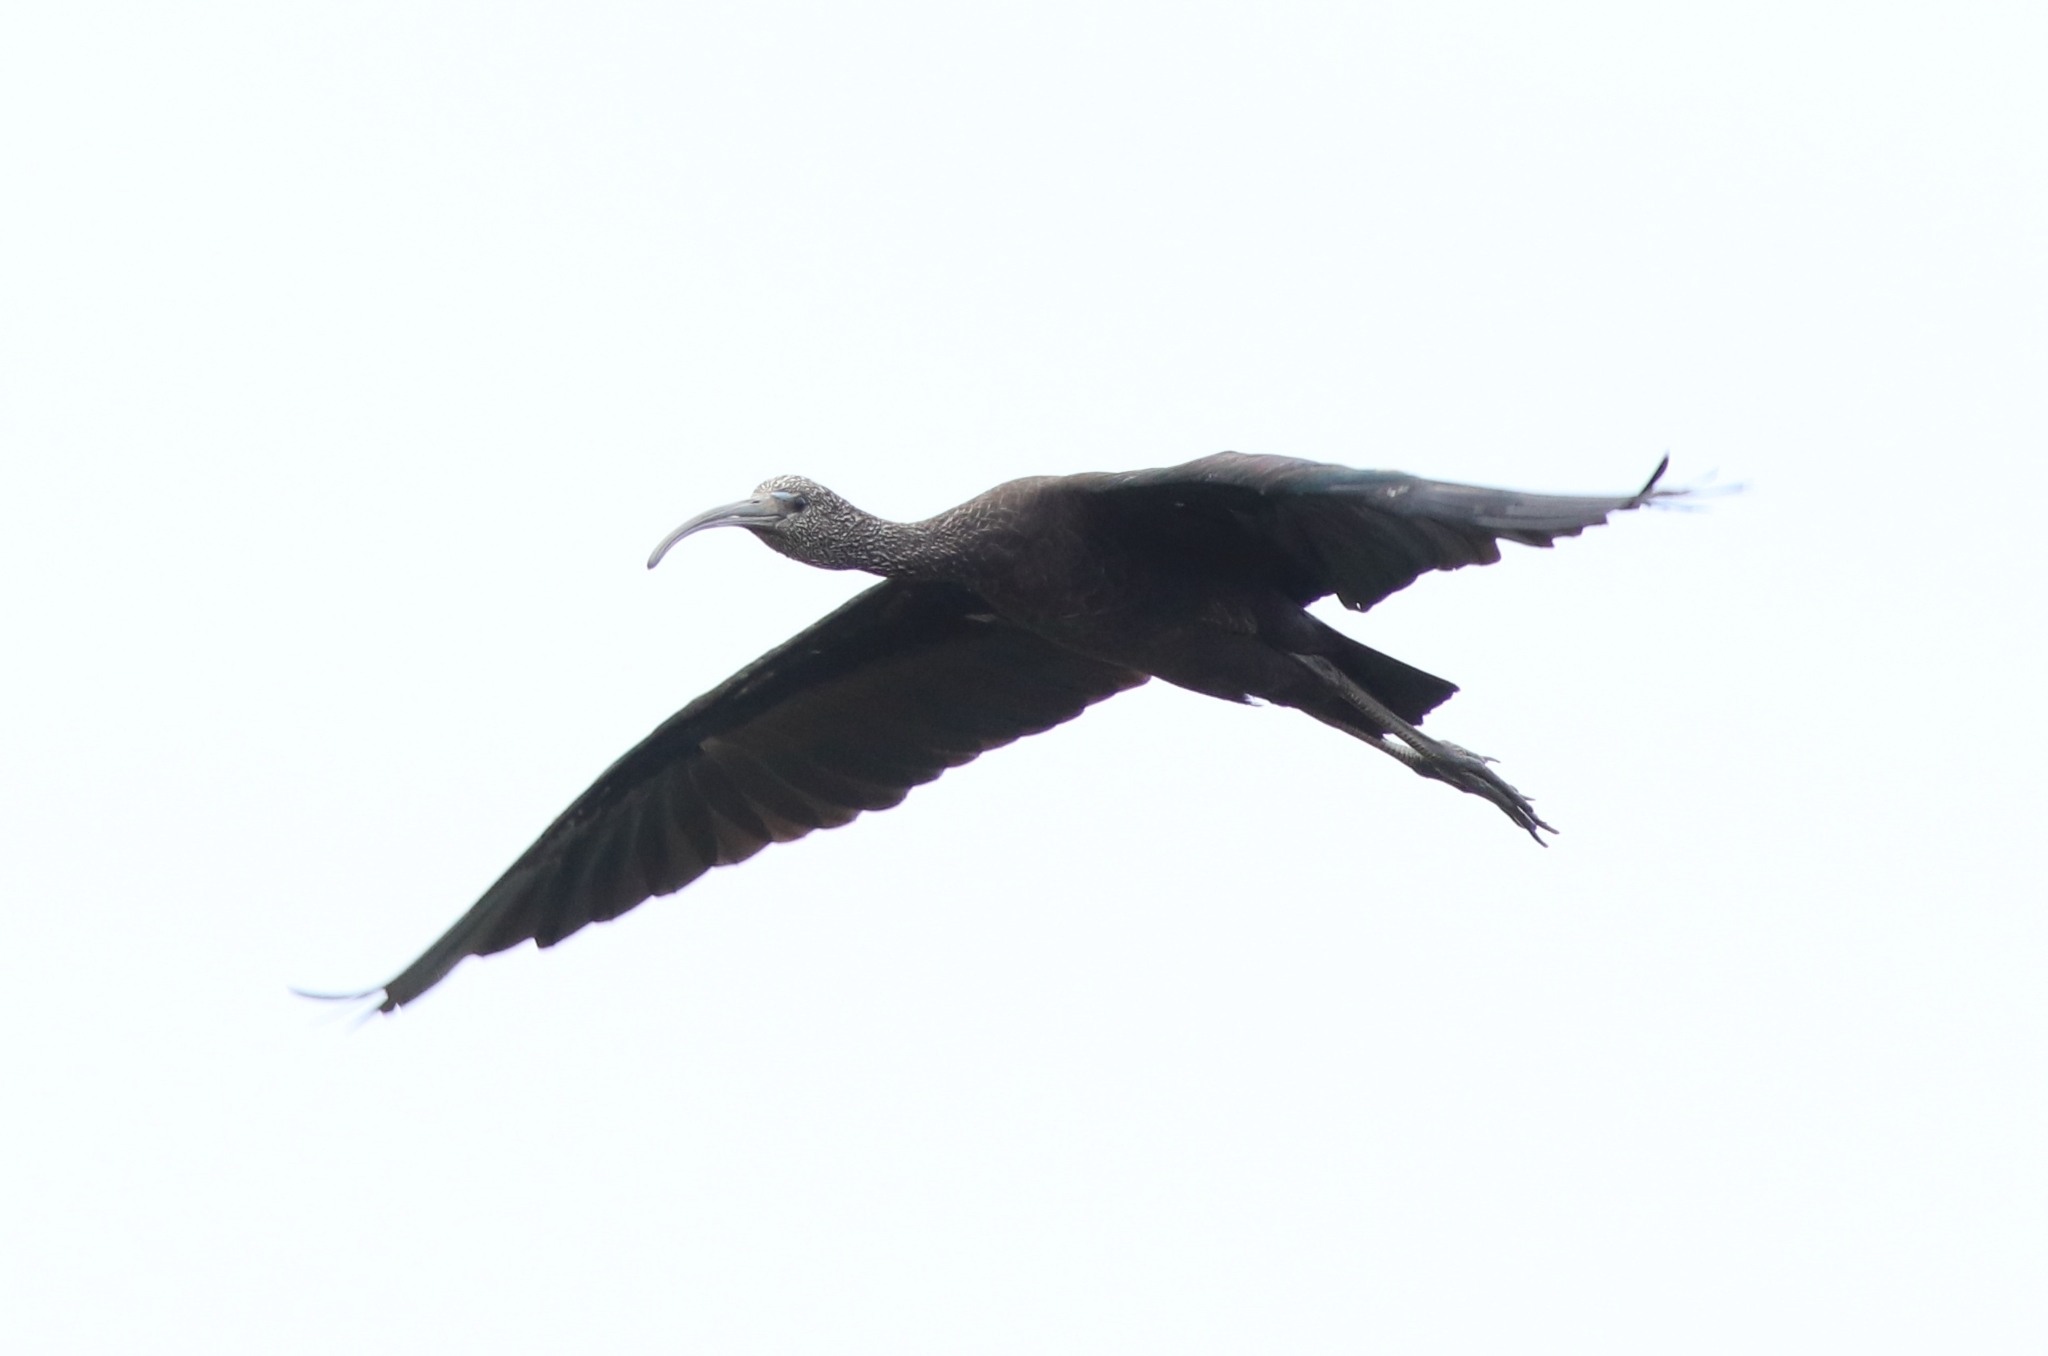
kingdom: Animalia
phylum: Chordata
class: Aves
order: Pelecaniformes
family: Threskiornithidae
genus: Plegadis
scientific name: Plegadis falcinellus
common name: Glossy ibis
